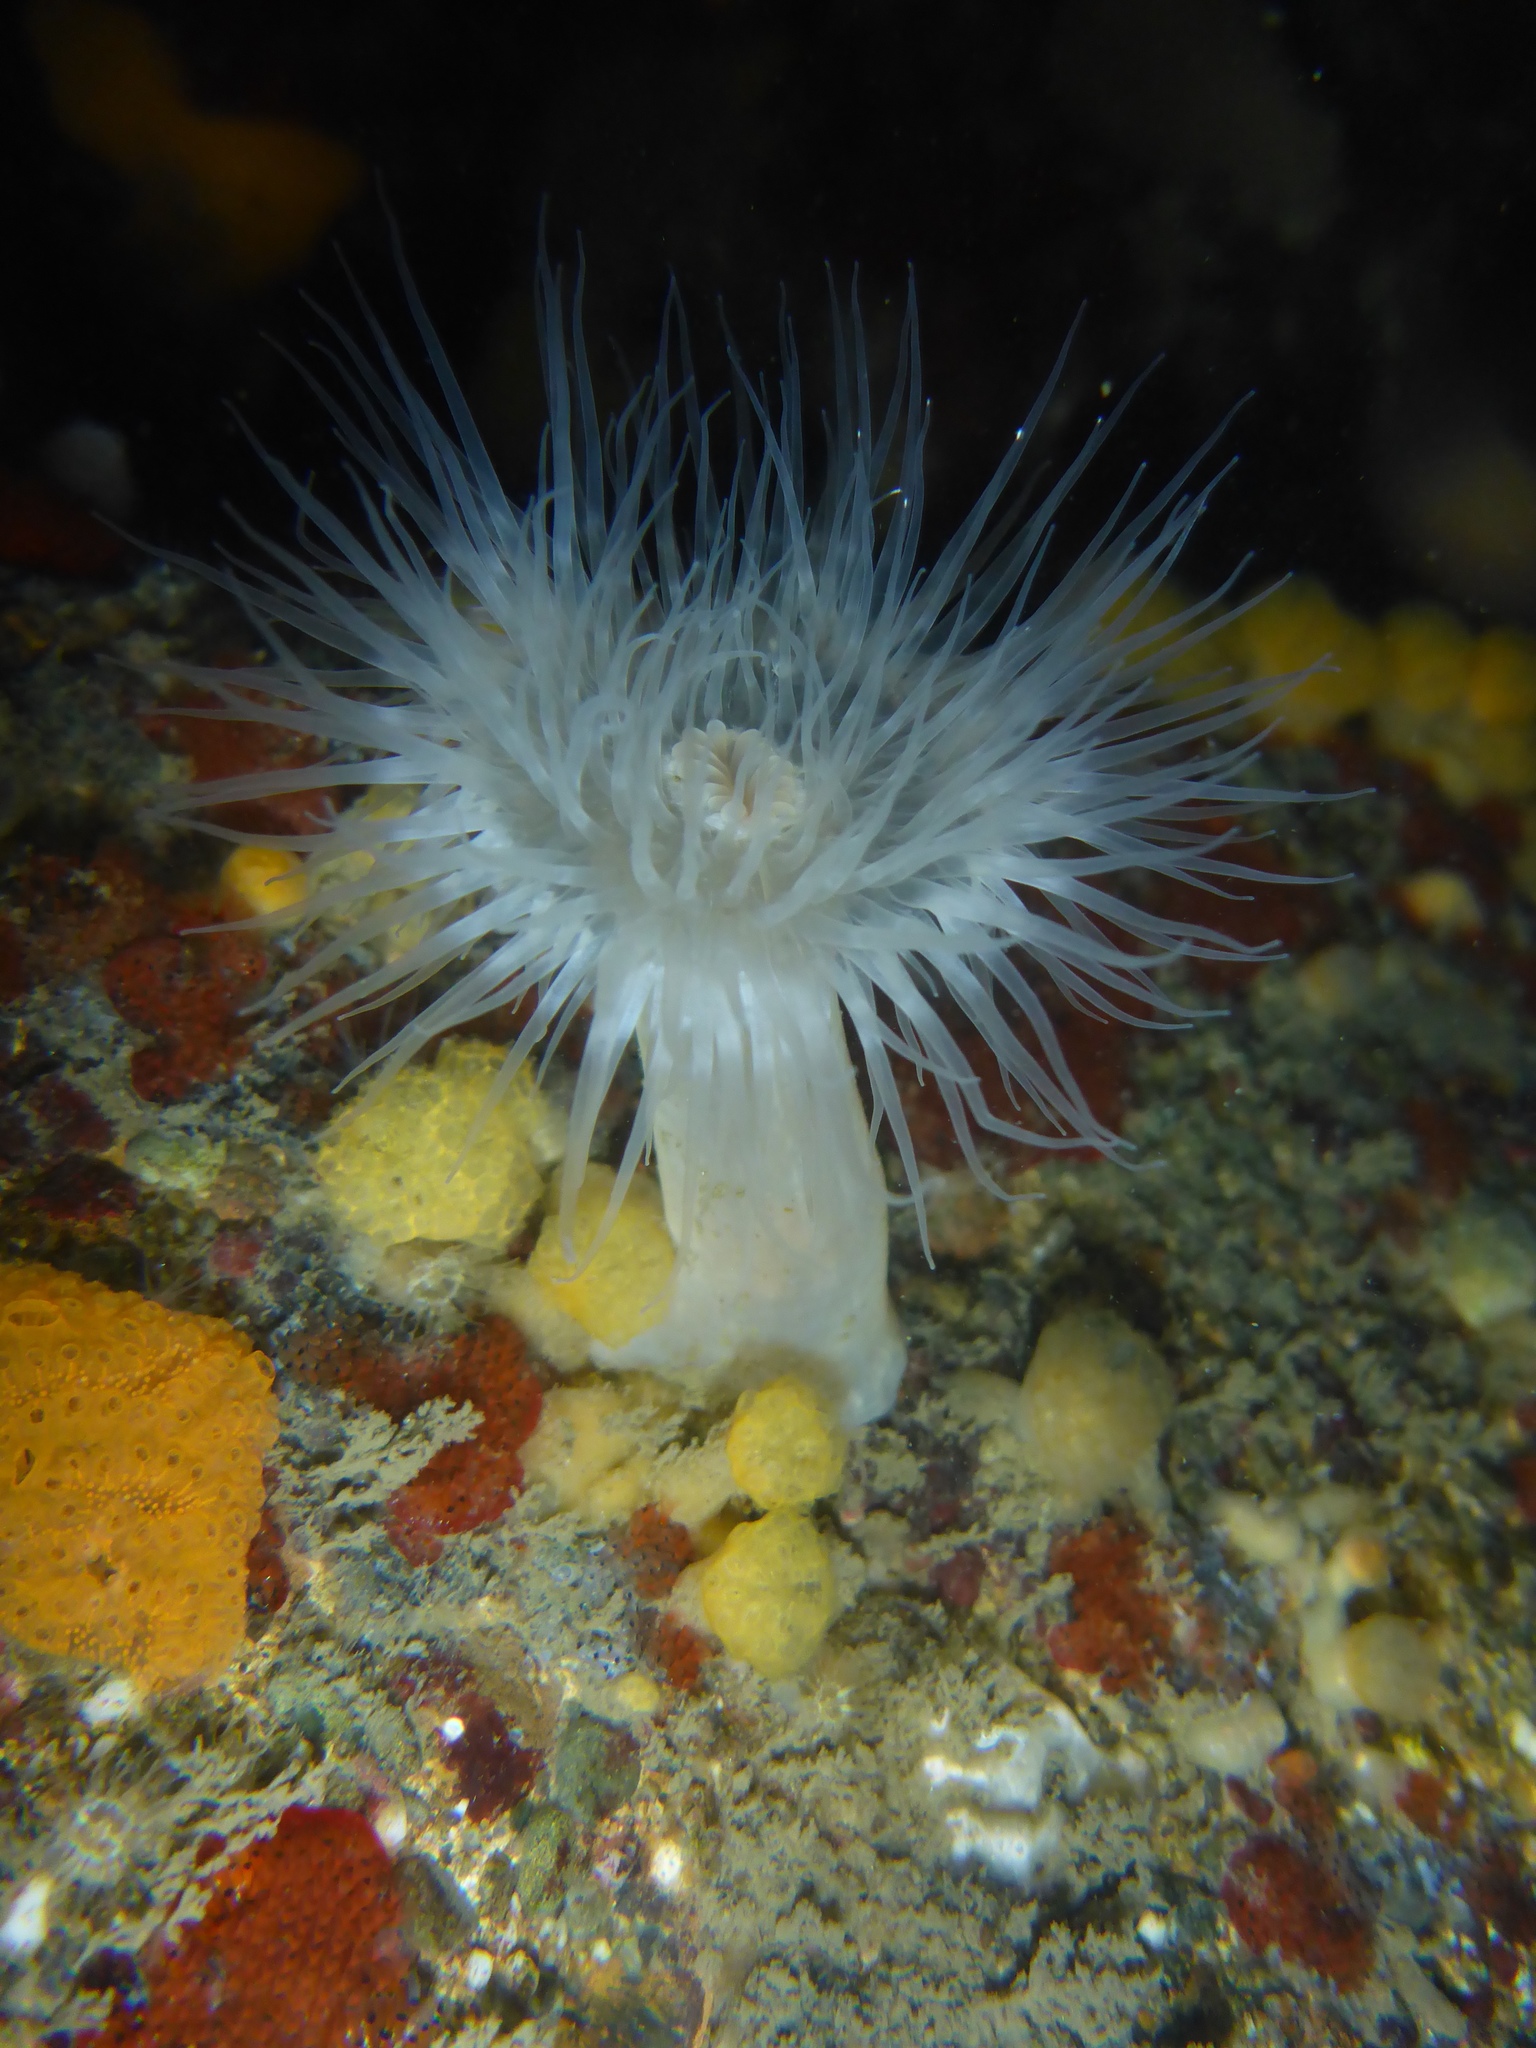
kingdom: Animalia
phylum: Cnidaria
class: Anthozoa
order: Actiniaria
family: Metridiidae
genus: Metridium
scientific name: Metridium senile
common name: Clonal plumose anemone
